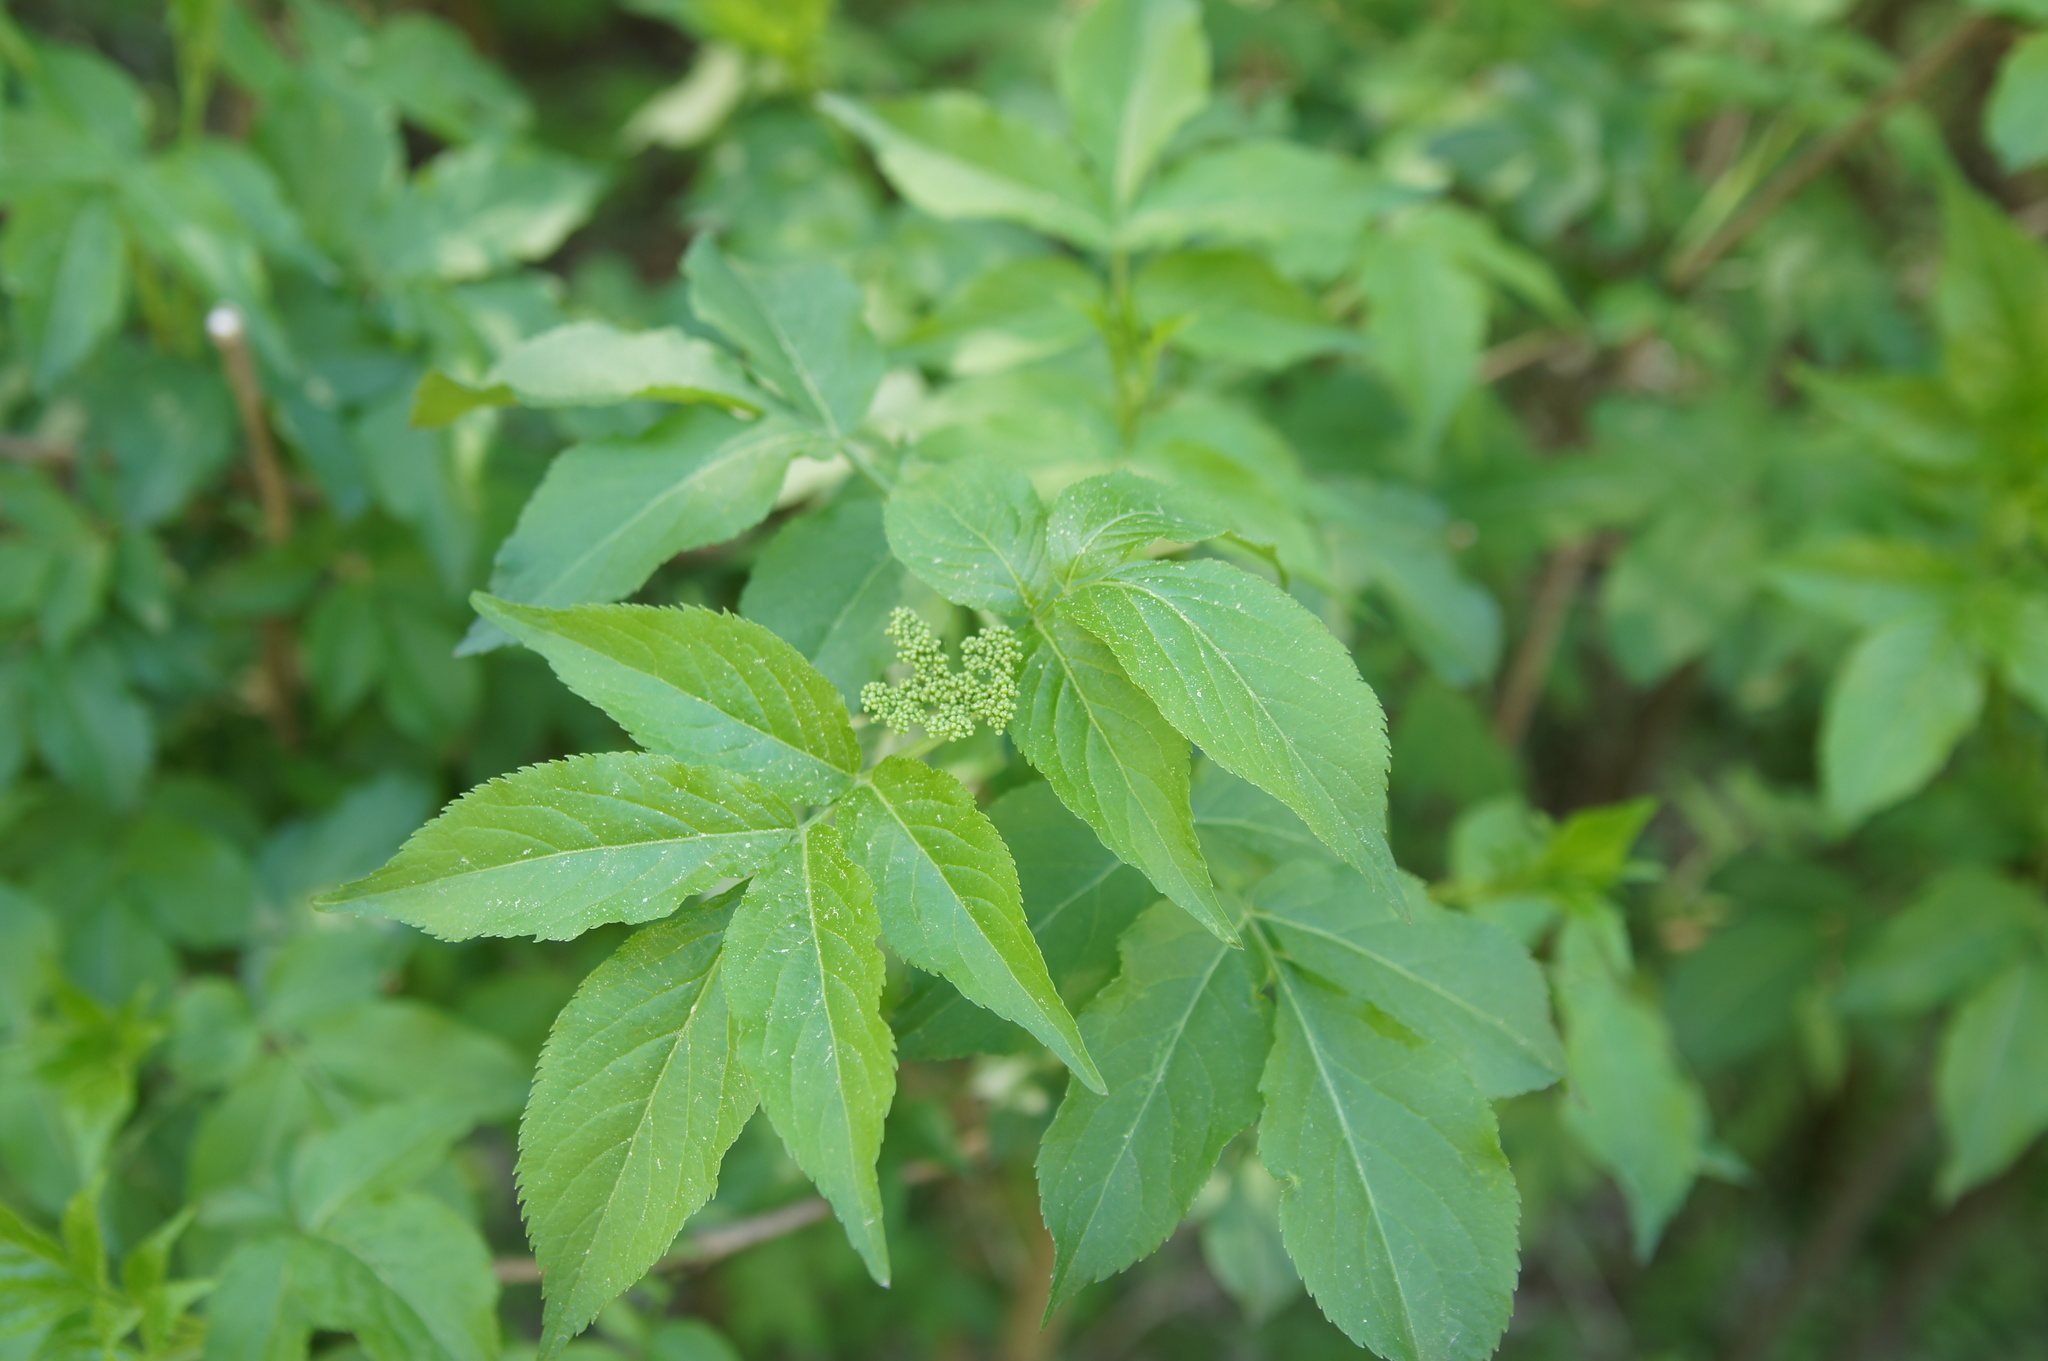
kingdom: Plantae
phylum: Tracheophyta
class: Magnoliopsida
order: Dipsacales
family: Viburnaceae
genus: Sambucus
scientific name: Sambucus nigra
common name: Elder
